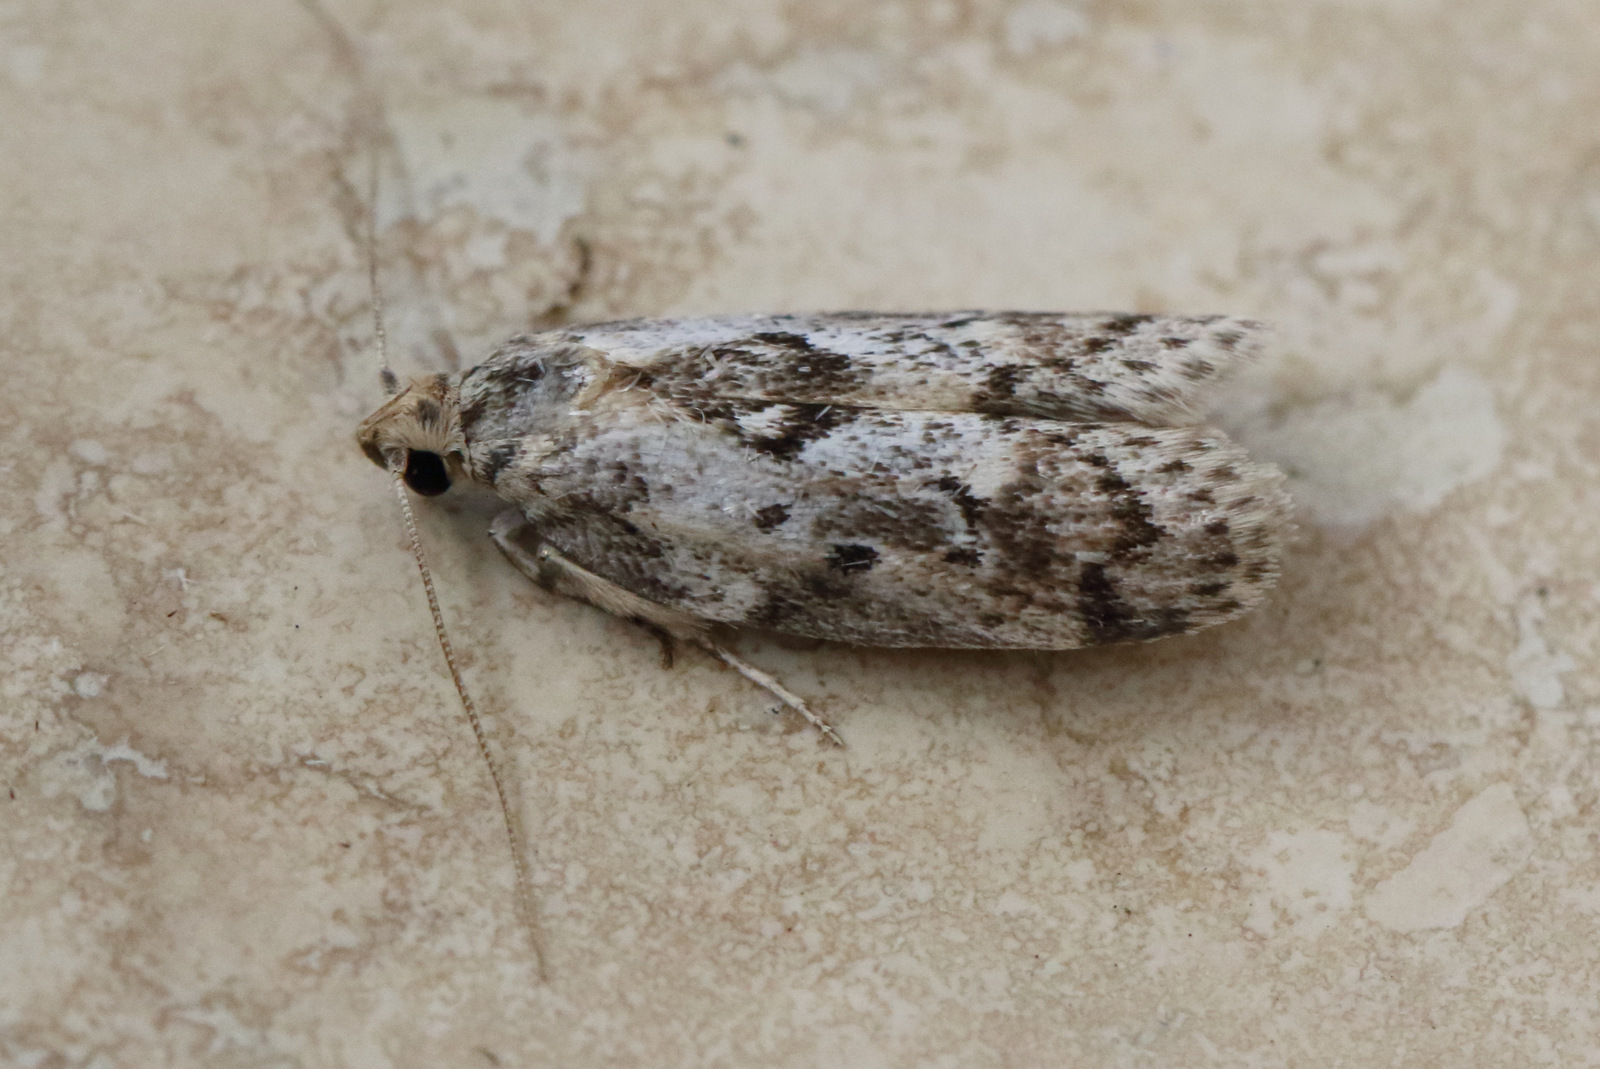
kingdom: Animalia
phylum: Arthropoda
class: Insecta
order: Lepidoptera
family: Oecophoridae
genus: Philobota
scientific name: Philobota baryptera
